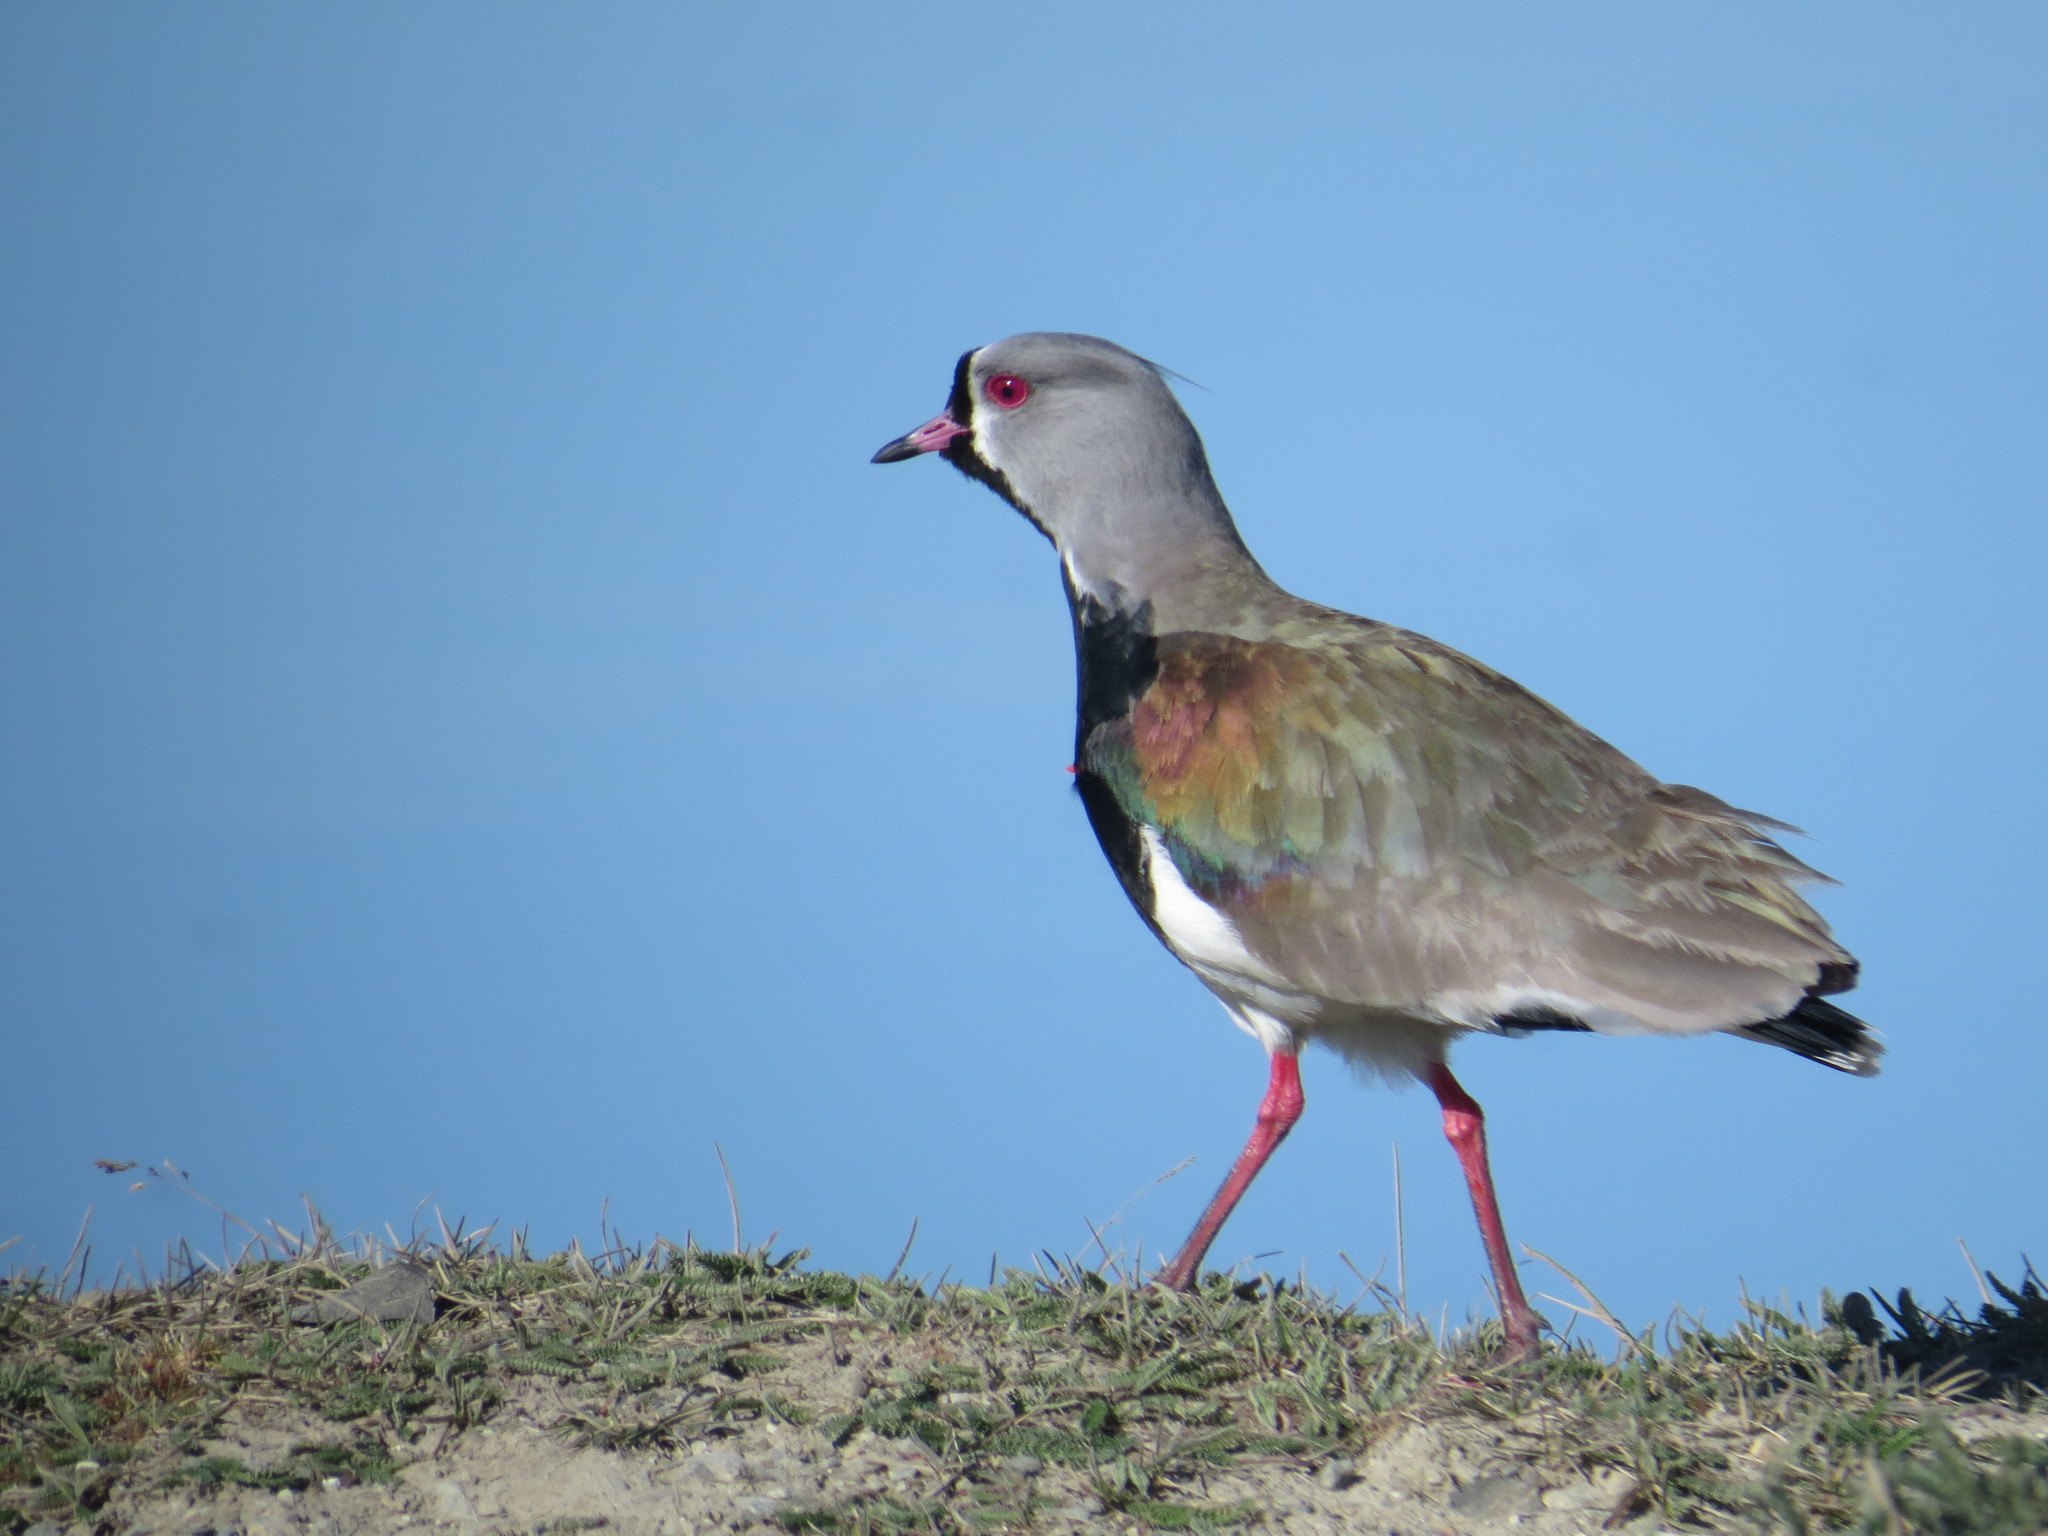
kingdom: Animalia
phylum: Chordata
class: Aves
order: Charadriiformes
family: Charadriidae
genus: Vanellus
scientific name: Vanellus chilensis
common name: Southern lapwing
